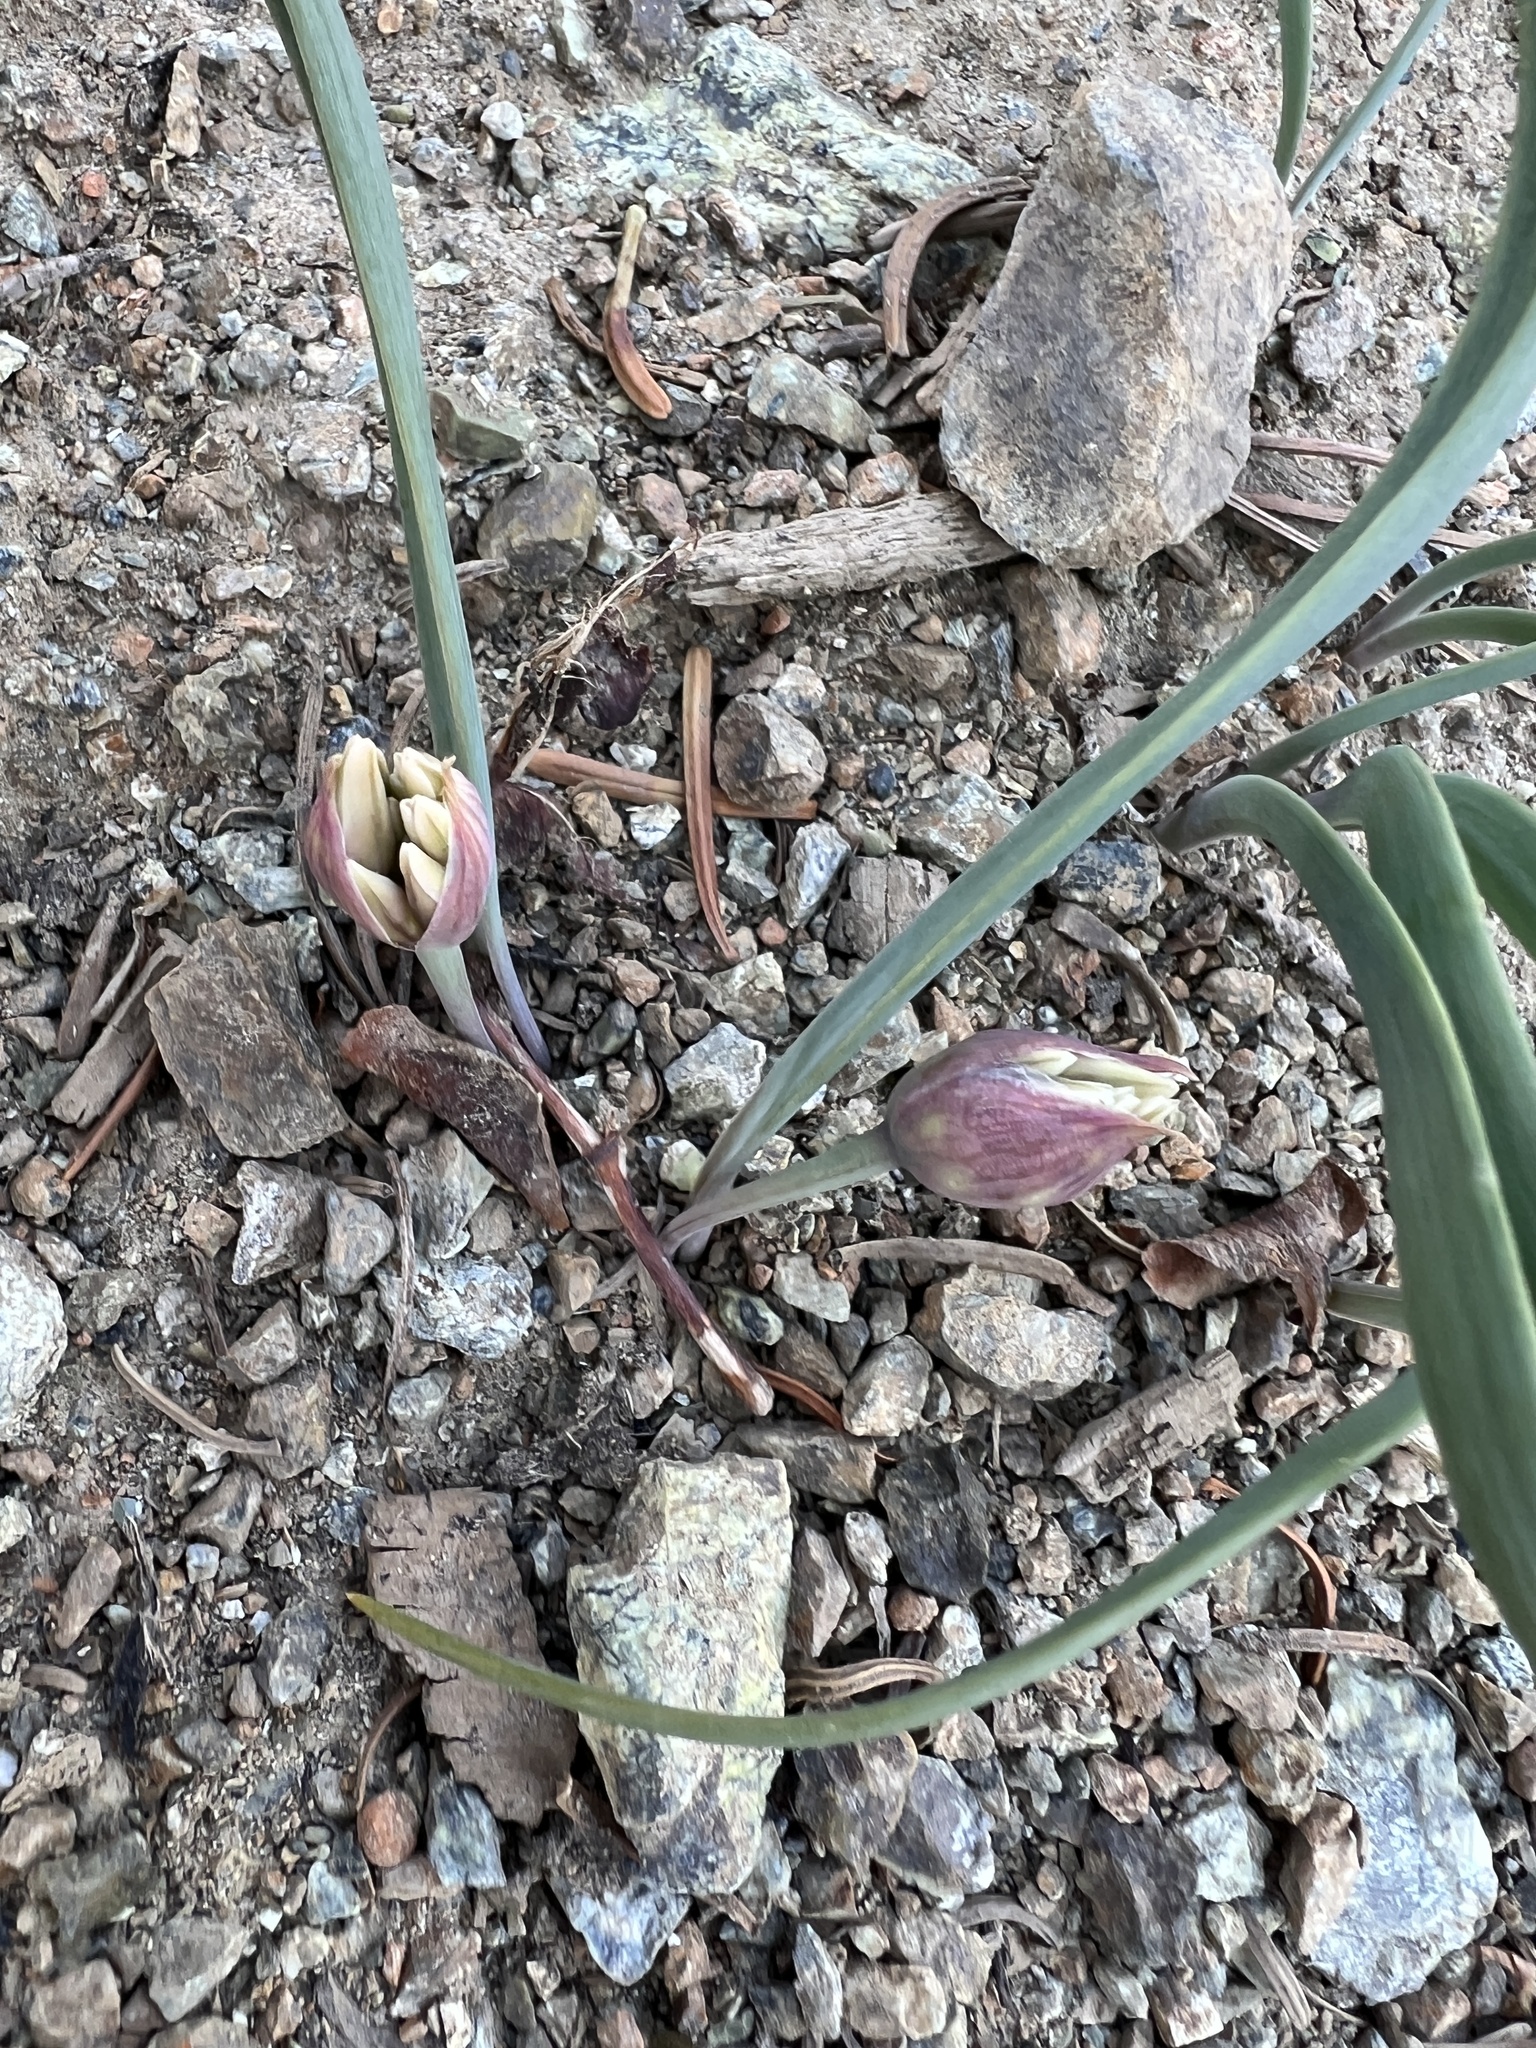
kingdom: Plantae
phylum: Tracheophyta
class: Liliopsida
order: Asparagales
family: Amaryllidaceae
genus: Allium
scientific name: Allium crenulatum
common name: Olympic onion
